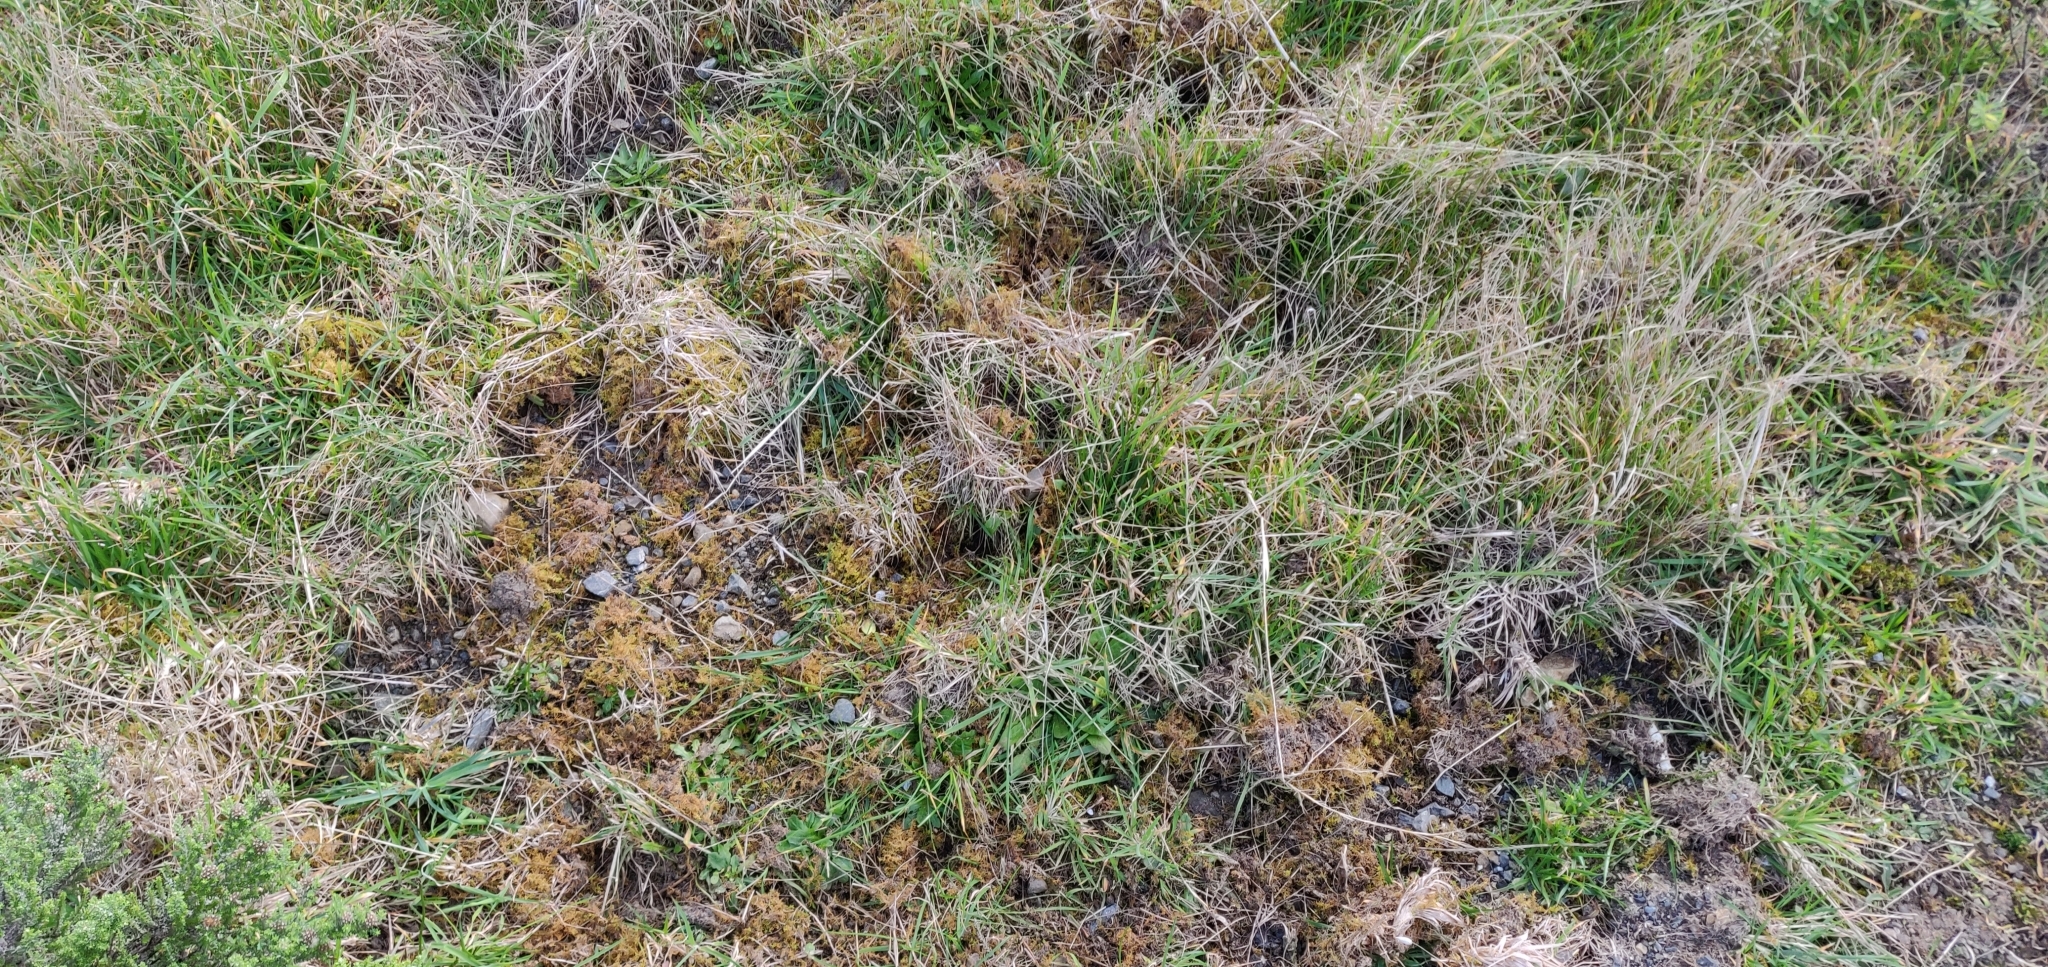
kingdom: Animalia
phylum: Chordata
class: Mammalia
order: Artiodactyla
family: Suidae
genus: Sus
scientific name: Sus scrofa
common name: Wild boar
